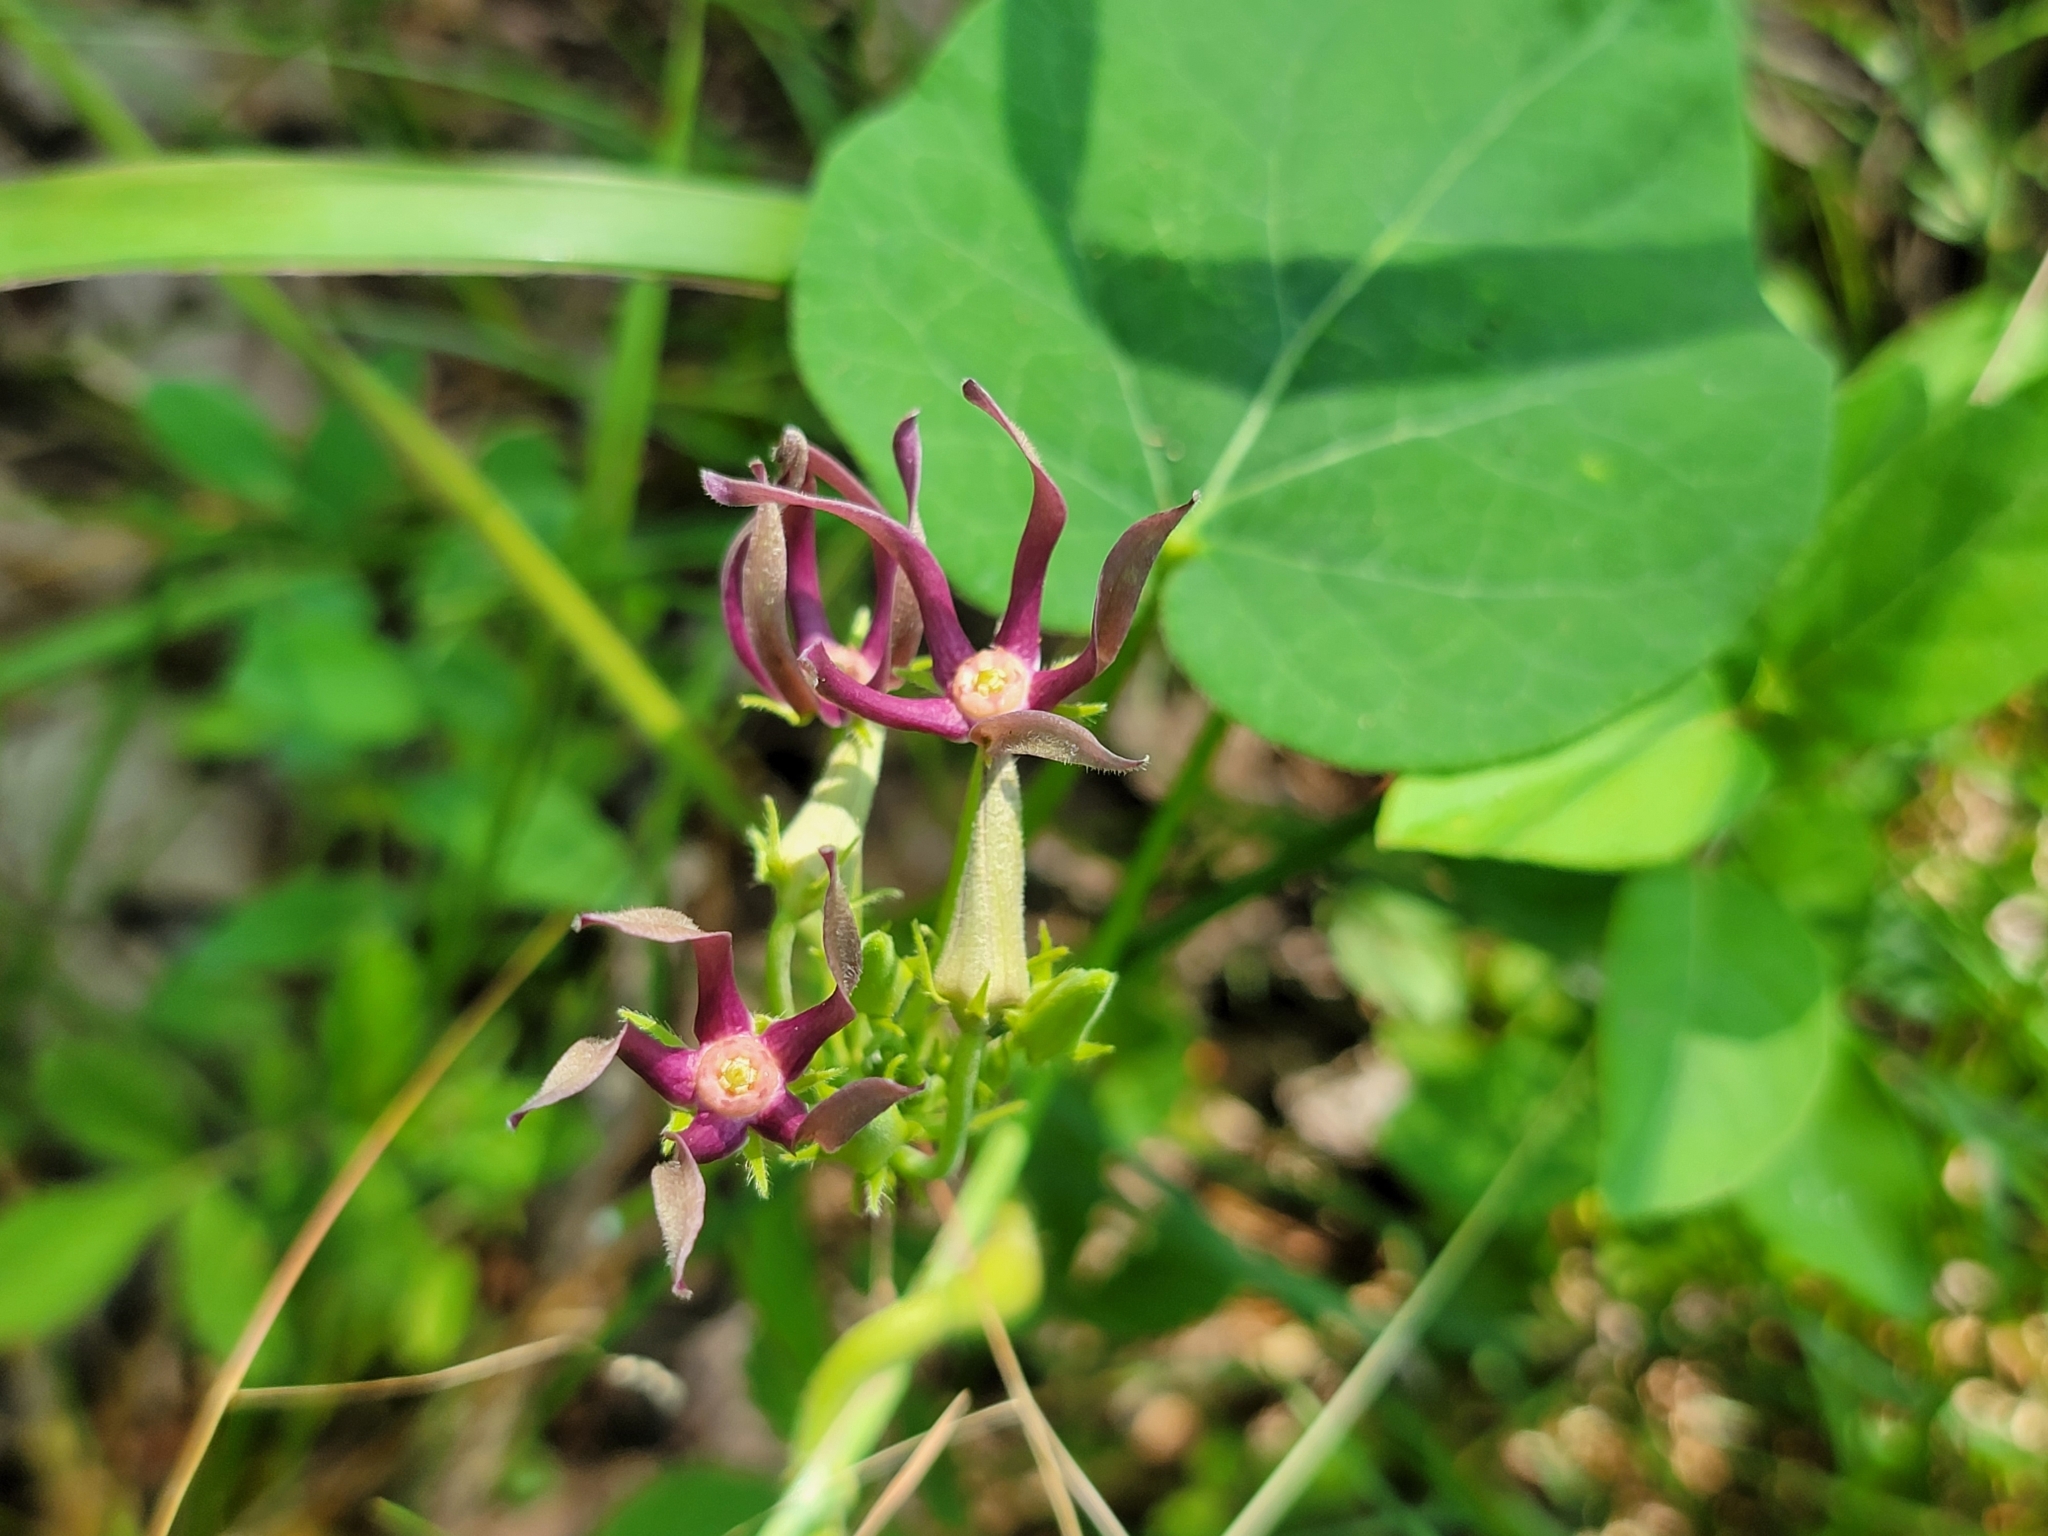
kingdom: Plantae
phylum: Tracheophyta
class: Magnoliopsida
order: Gentianales
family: Apocynaceae
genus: Matelea
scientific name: Matelea obliqua
